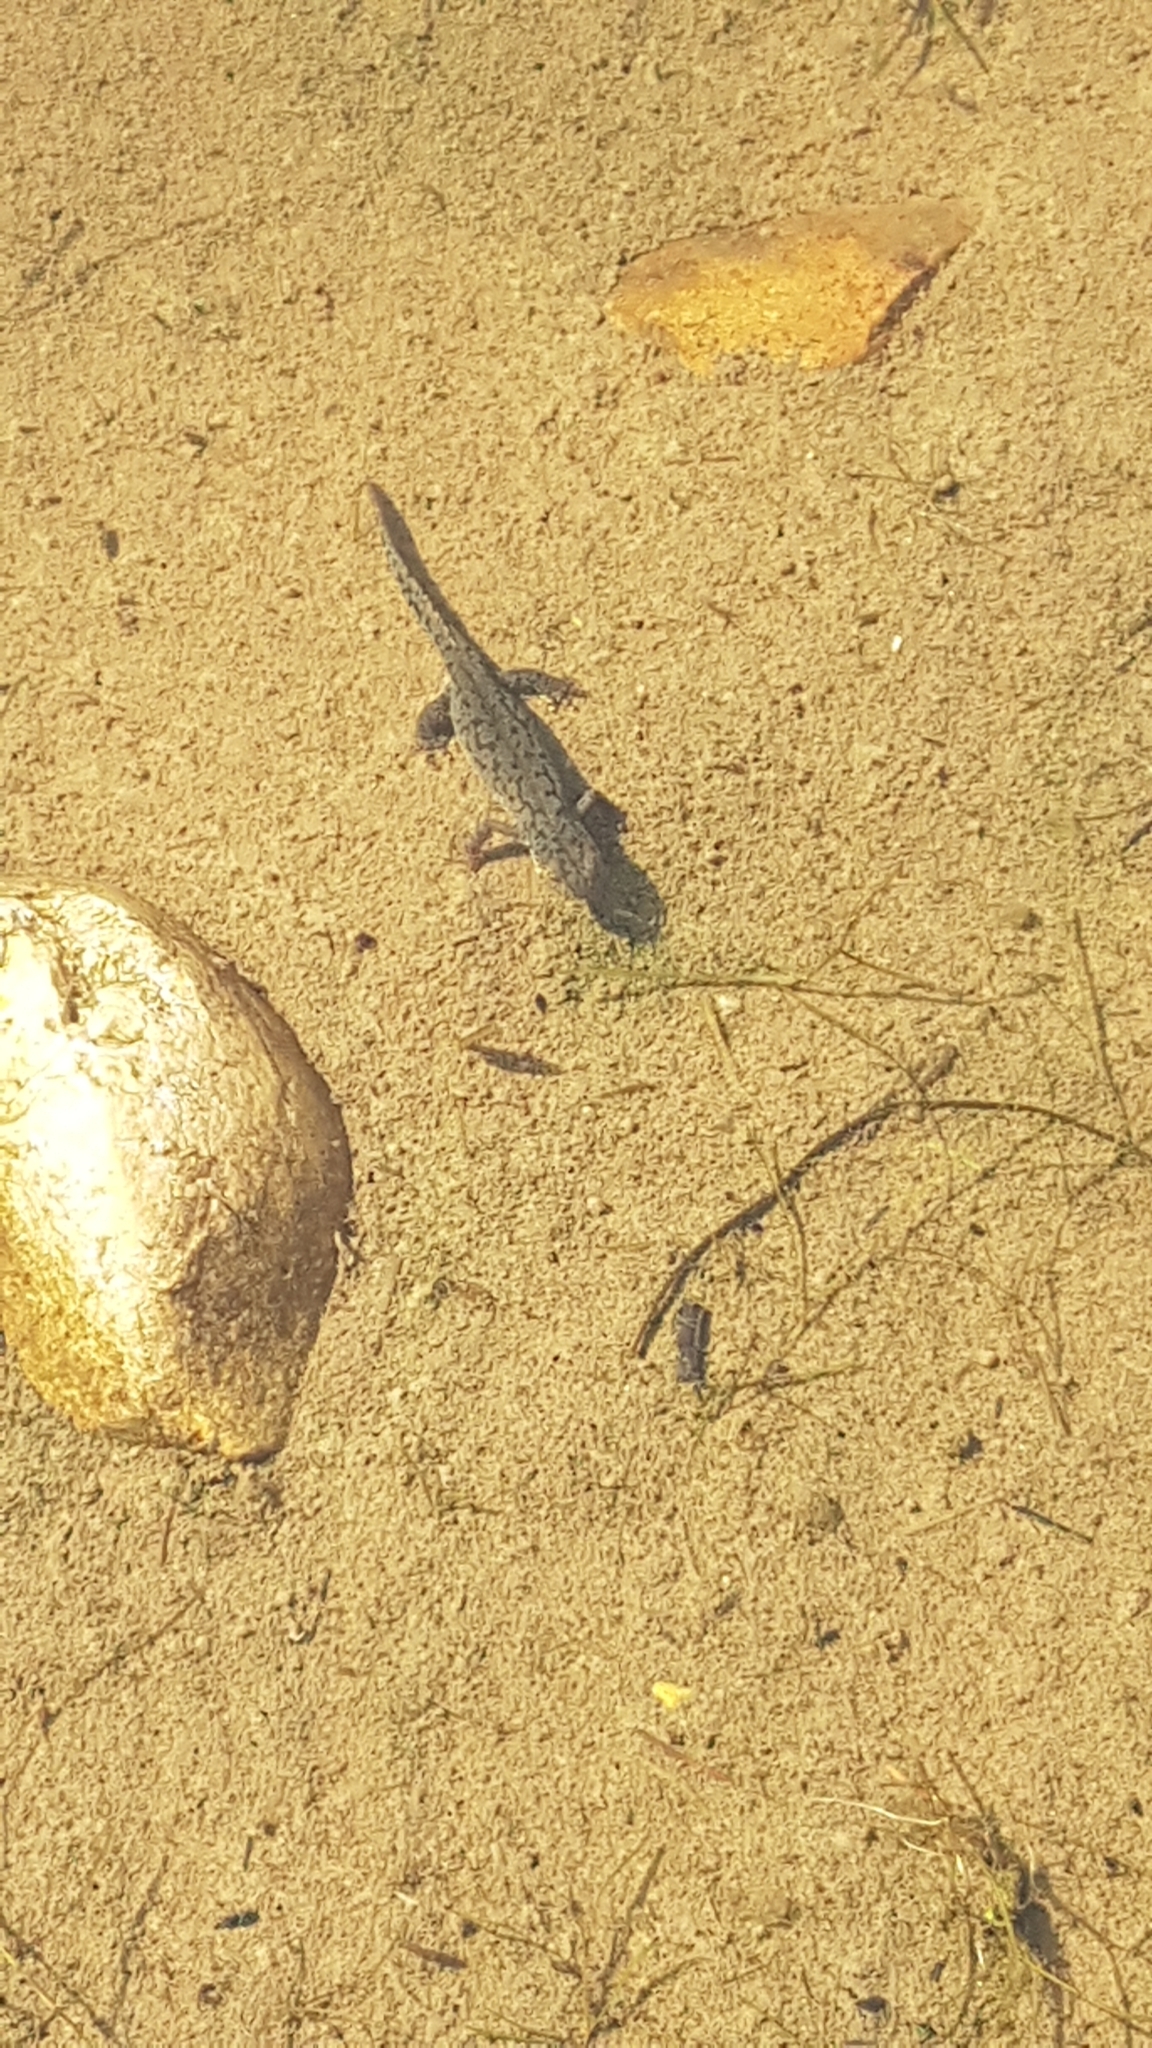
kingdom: Animalia
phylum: Chordata
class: Amphibia
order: Caudata
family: Salamandridae
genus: Ichthyosaura
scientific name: Ichthyosaura alpestris
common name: Alpine newt
